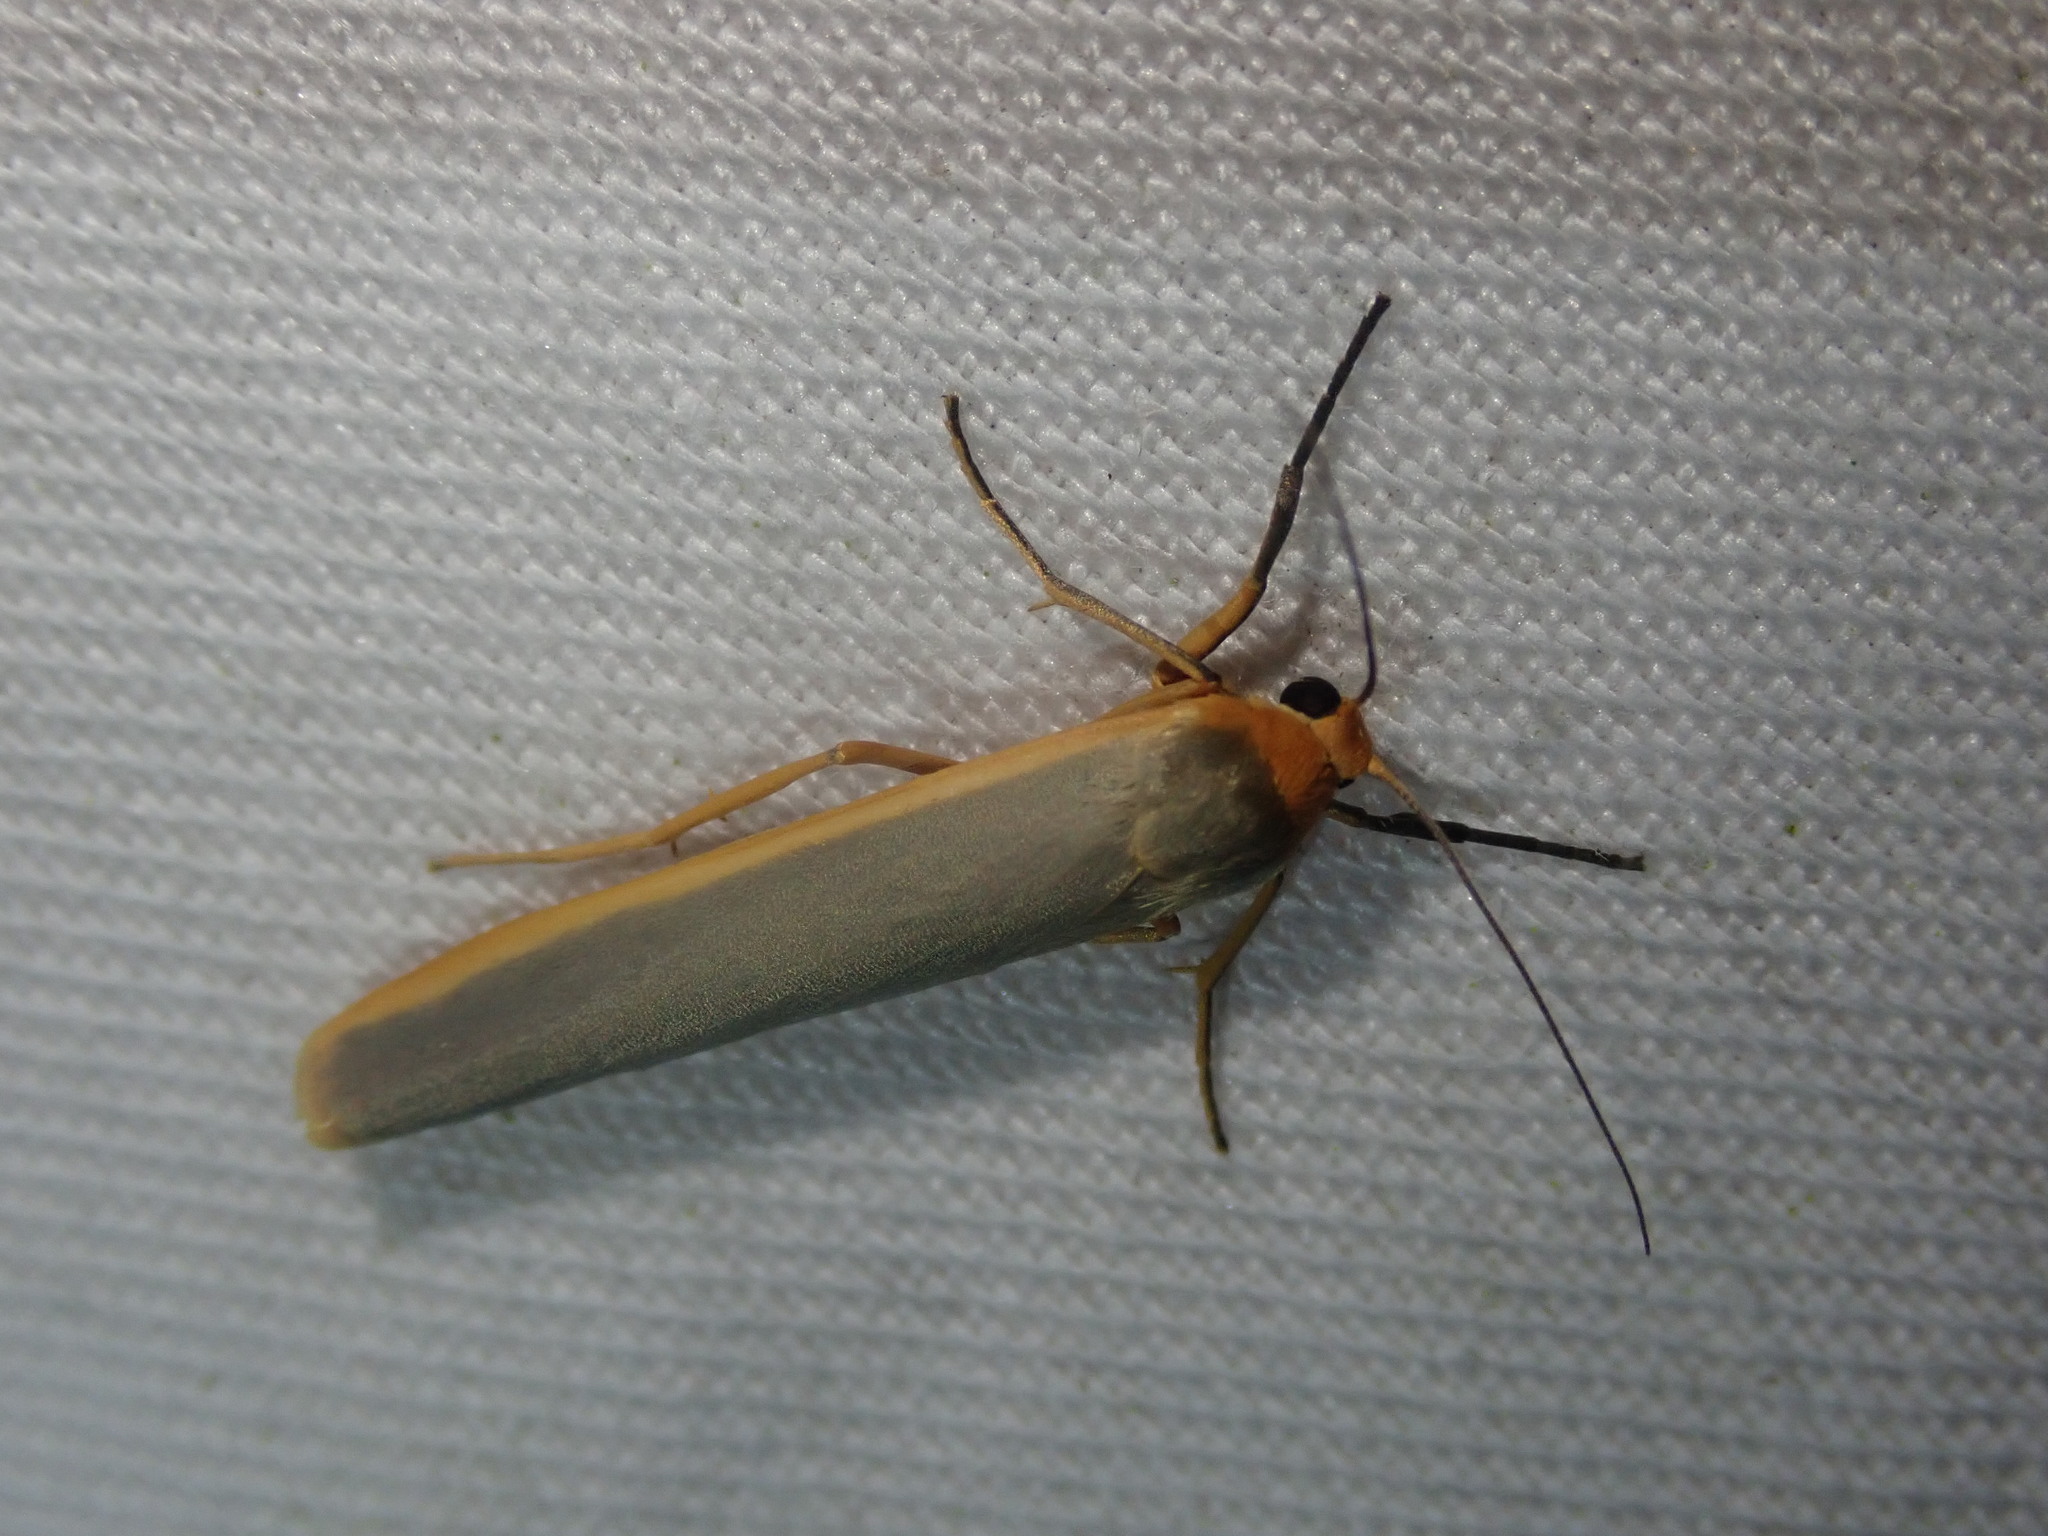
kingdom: Animalia
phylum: Arthropoda
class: Insecta
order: Lepidoptera
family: Erebidae
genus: Manulea
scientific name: Manulea complana
